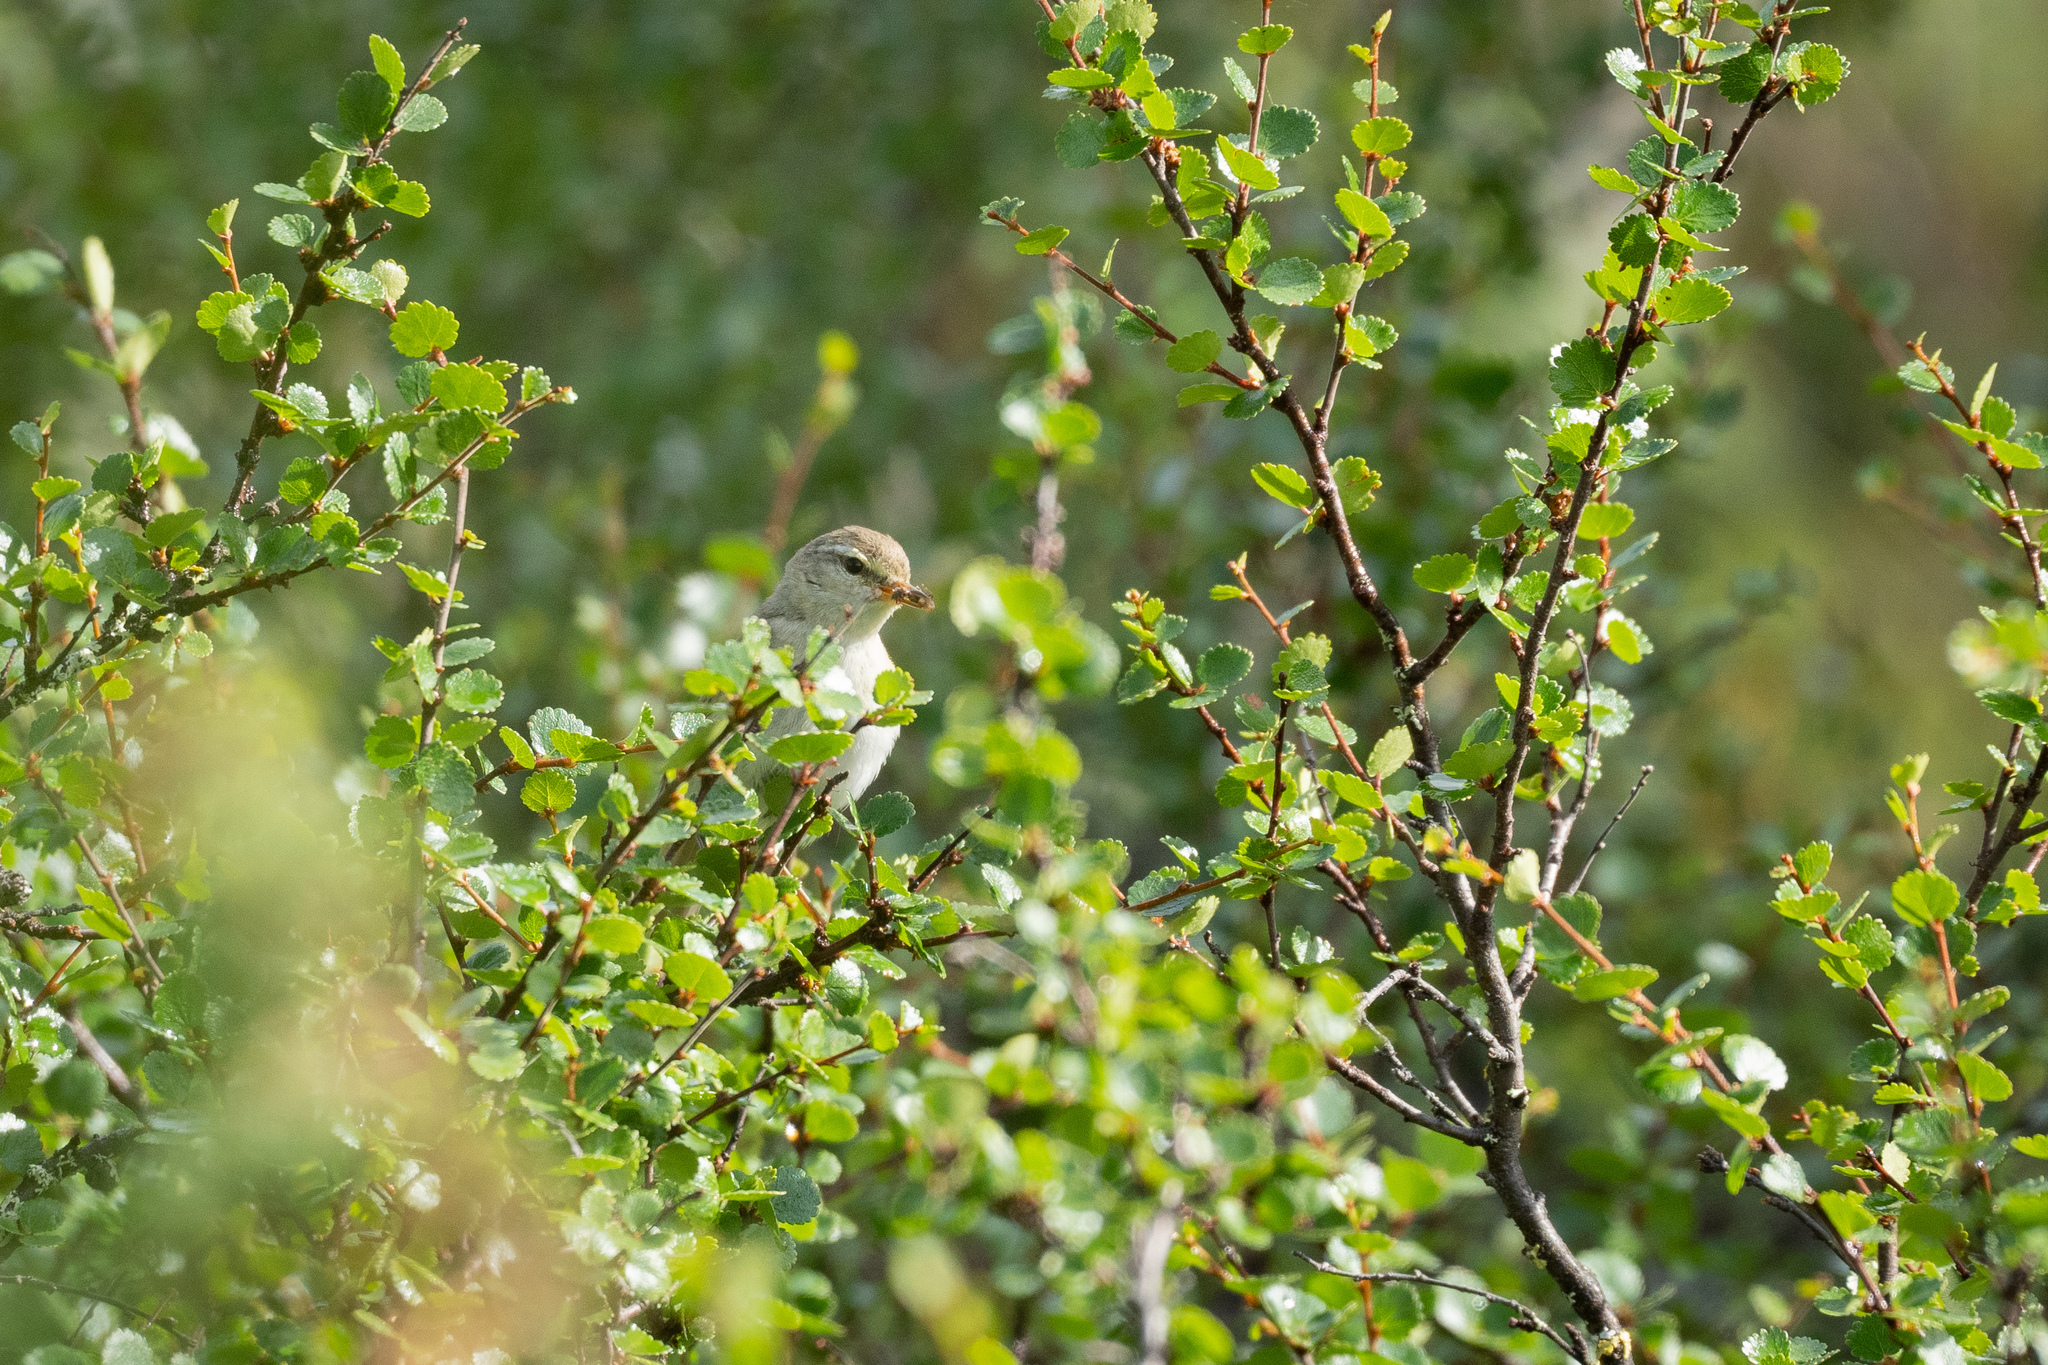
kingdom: Animalia
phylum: Chordata
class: Aves
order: Passeriformes
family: Phylloscopidae
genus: Phylloscopus
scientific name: Phylloscopus trochilus
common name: Willow warbler
